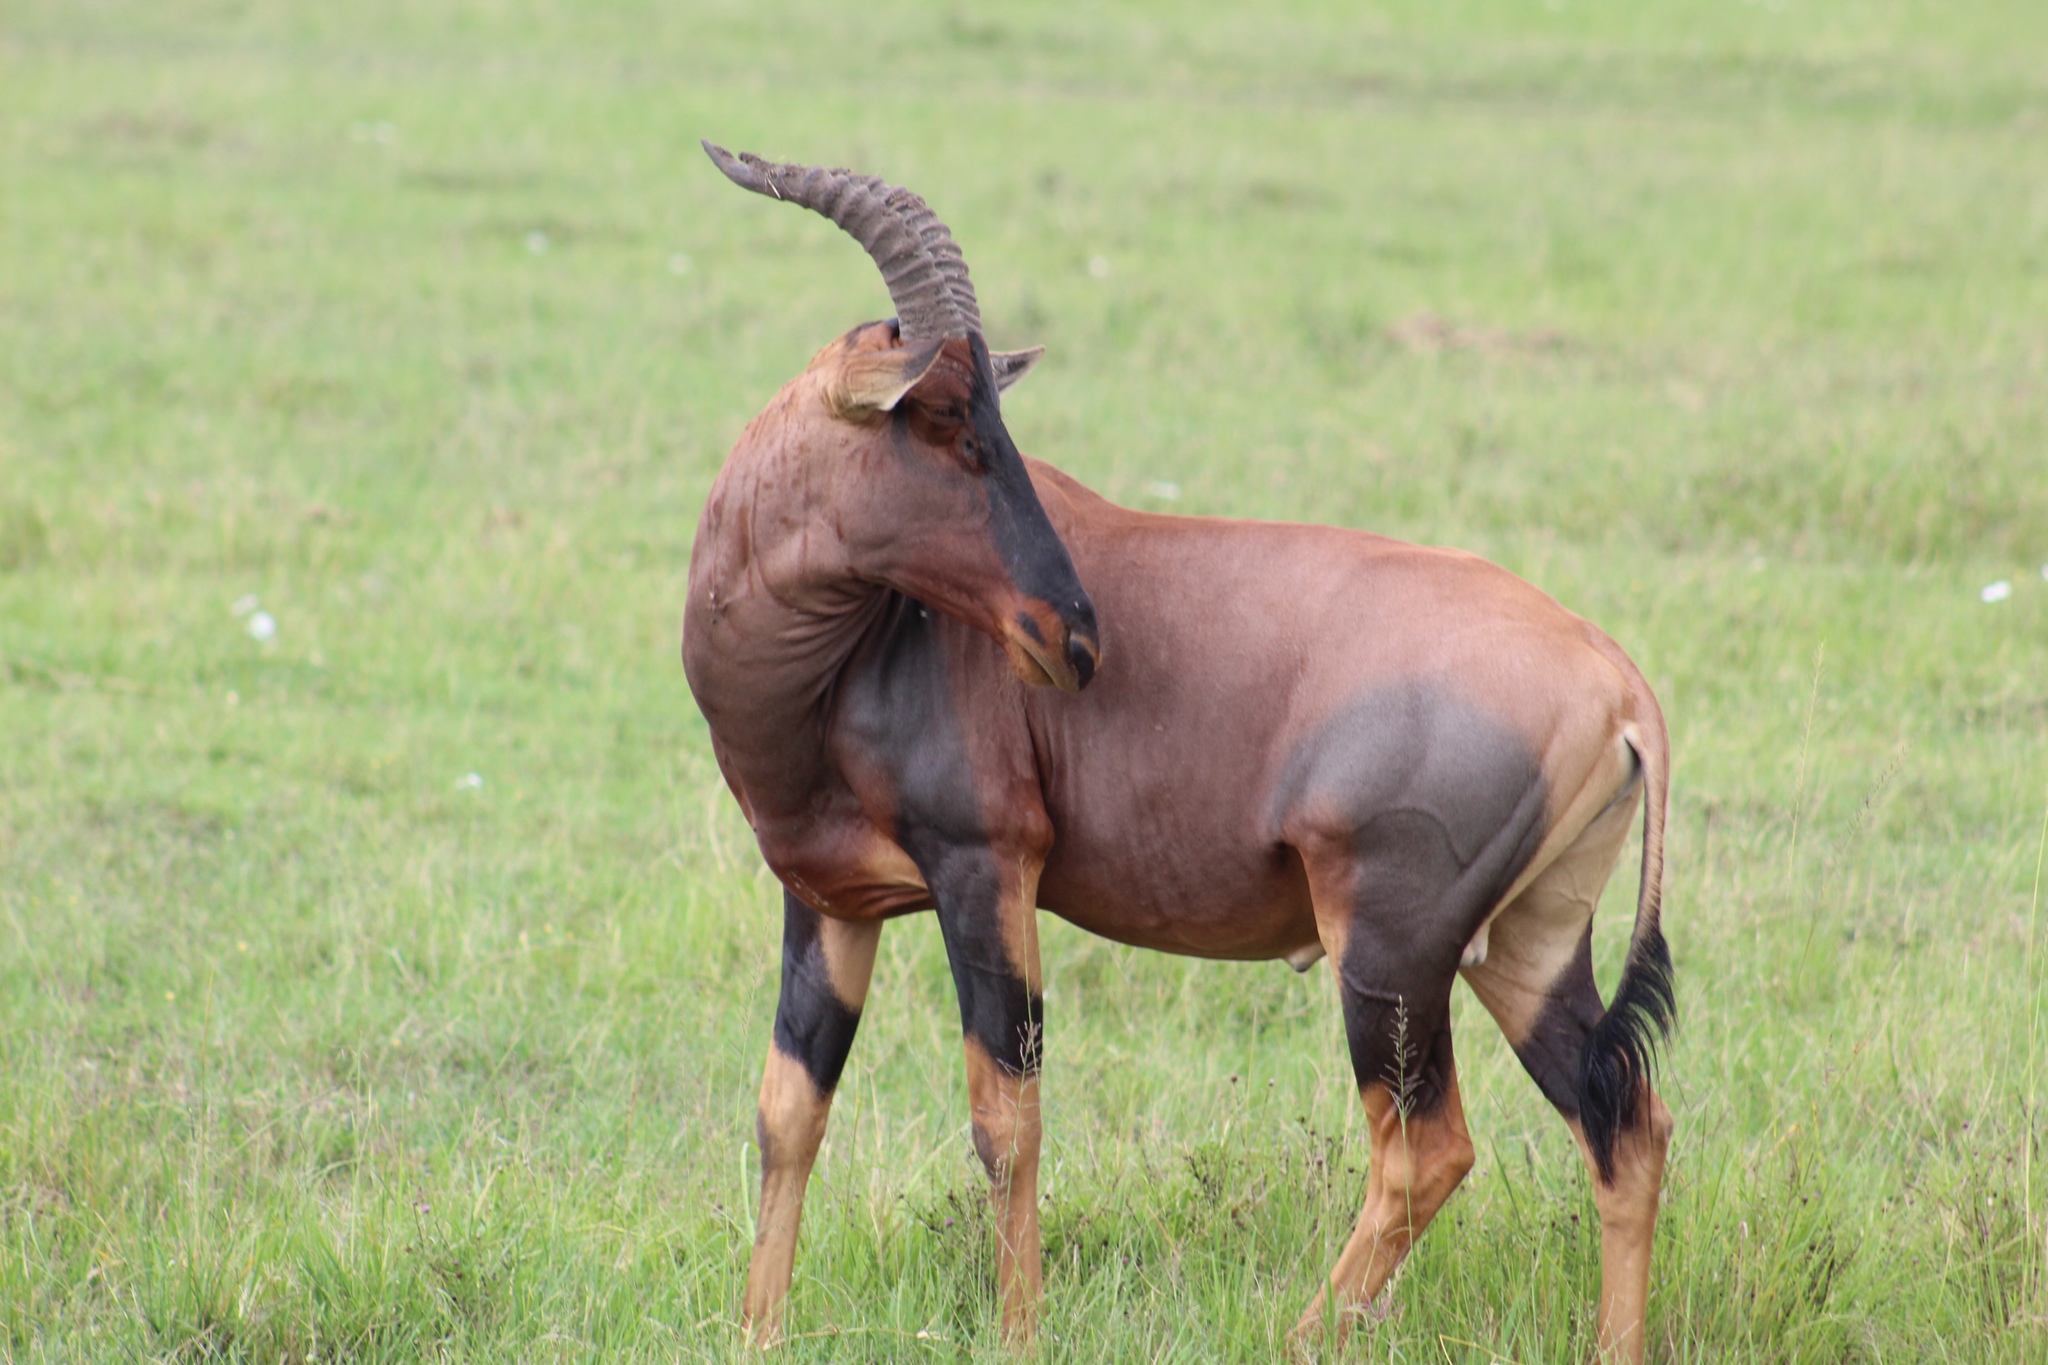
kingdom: Animalia
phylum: Chordata
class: Mammalia
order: Artiodactyla
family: Bovidae
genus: Damaliscus
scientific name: Damaliscus korrigum
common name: Topi
